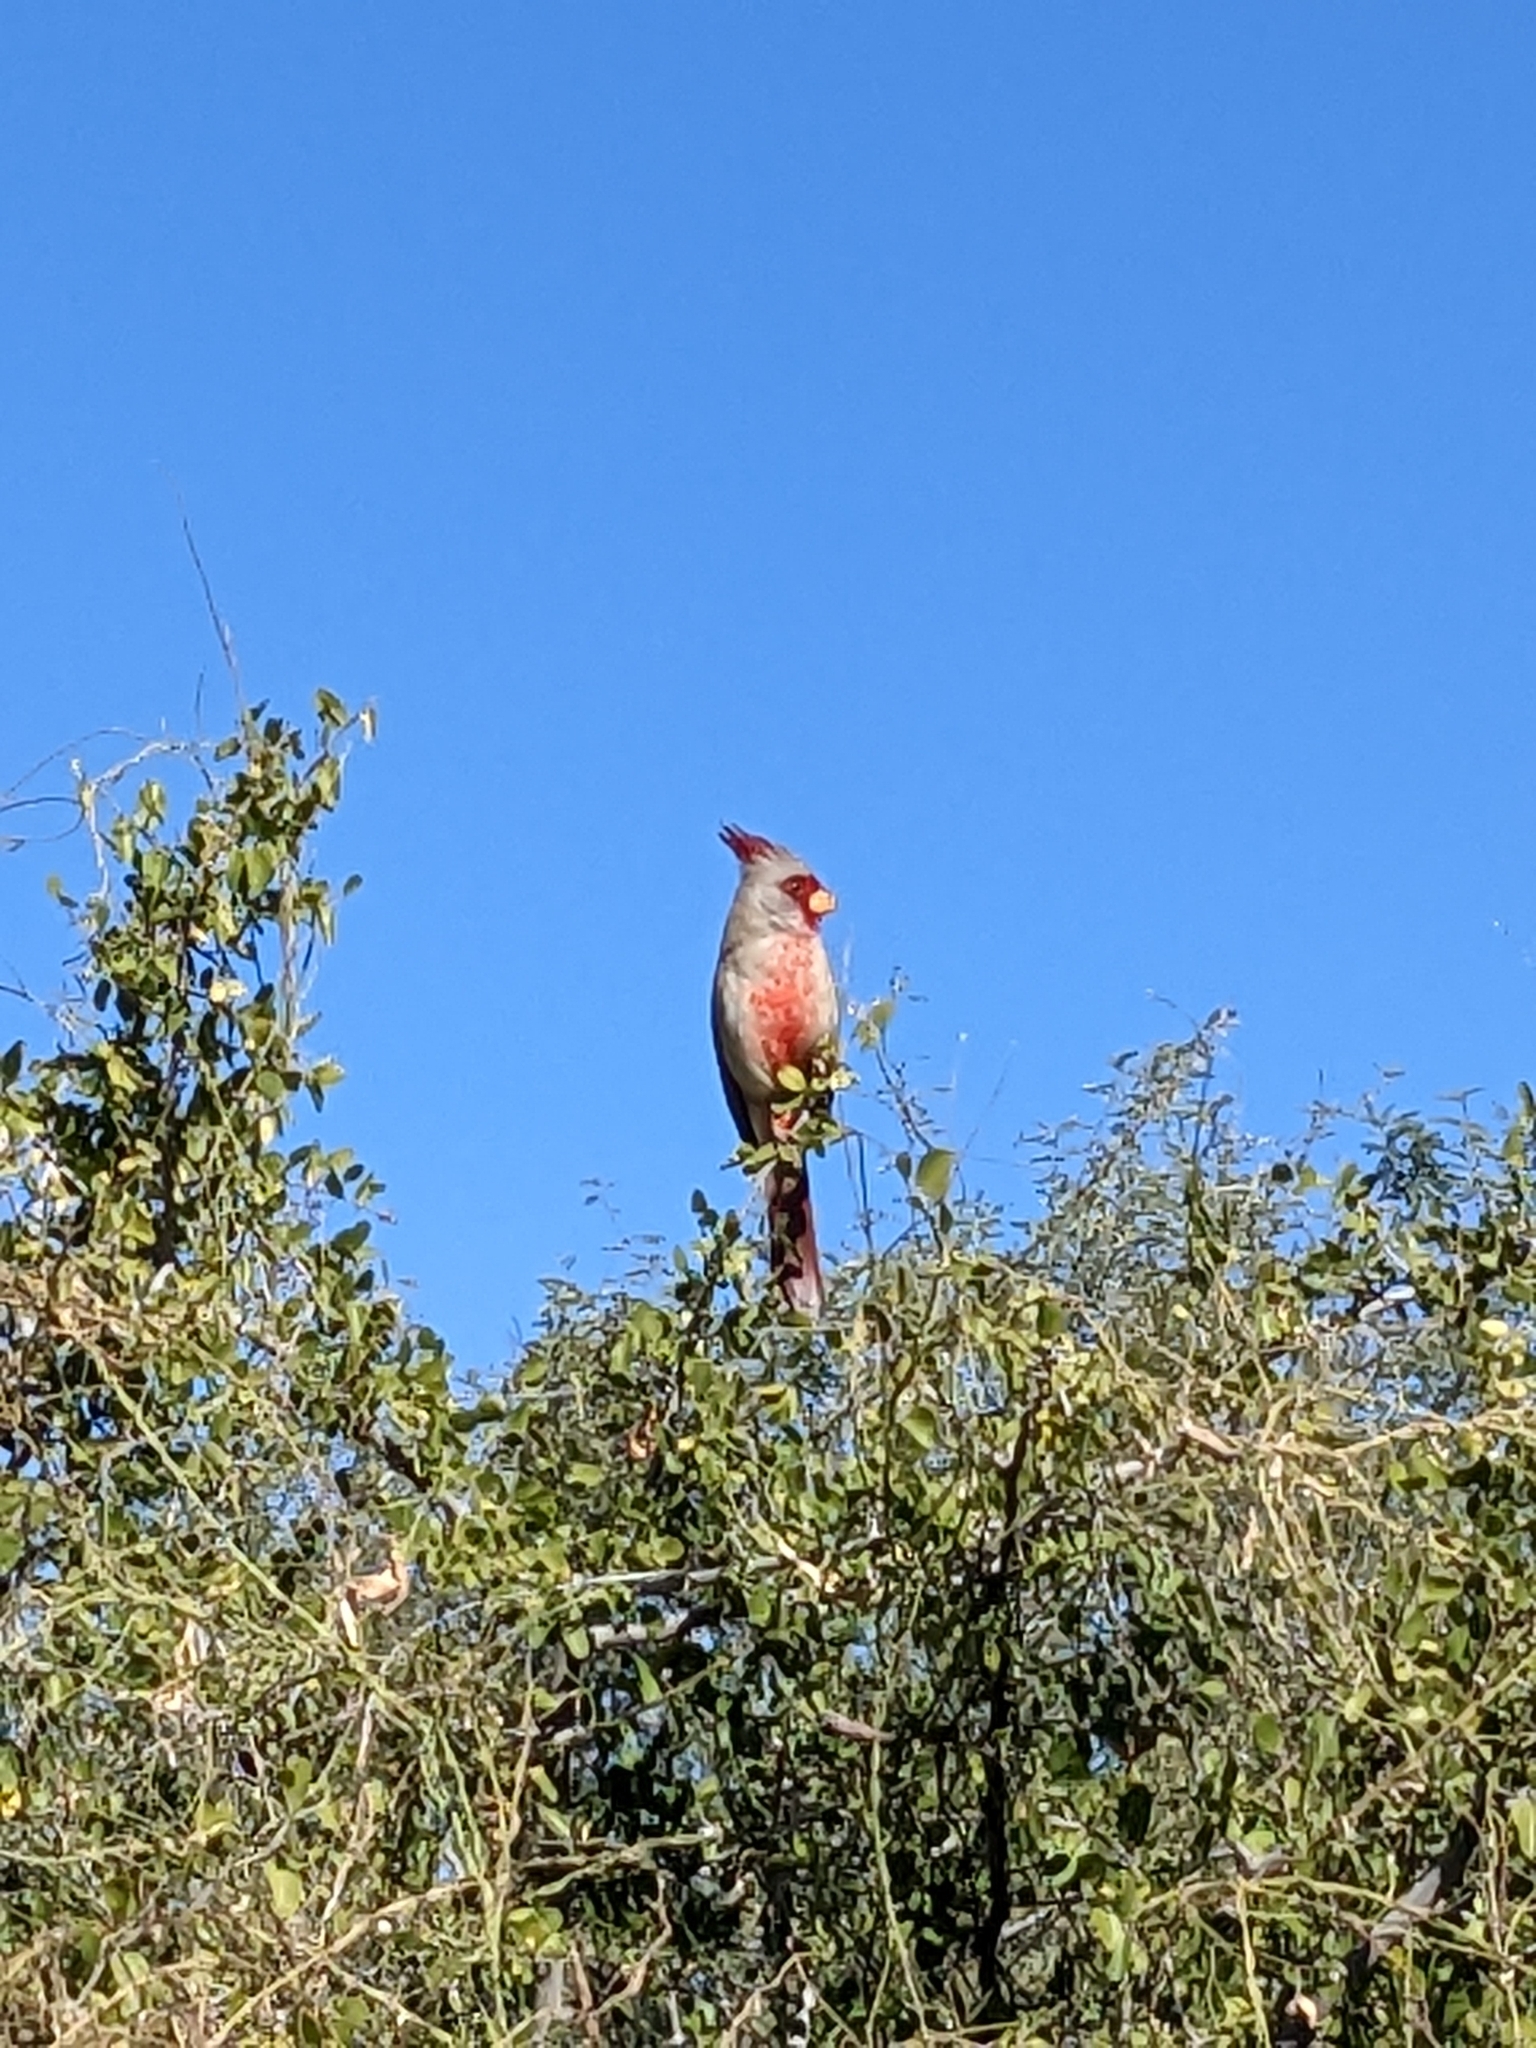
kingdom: Animalia
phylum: Chordata
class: Aves
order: Passeriformes
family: Cardinalidae
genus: Cardinalis
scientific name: Cardinalis sinuatus
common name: Pyrrhuloxia
